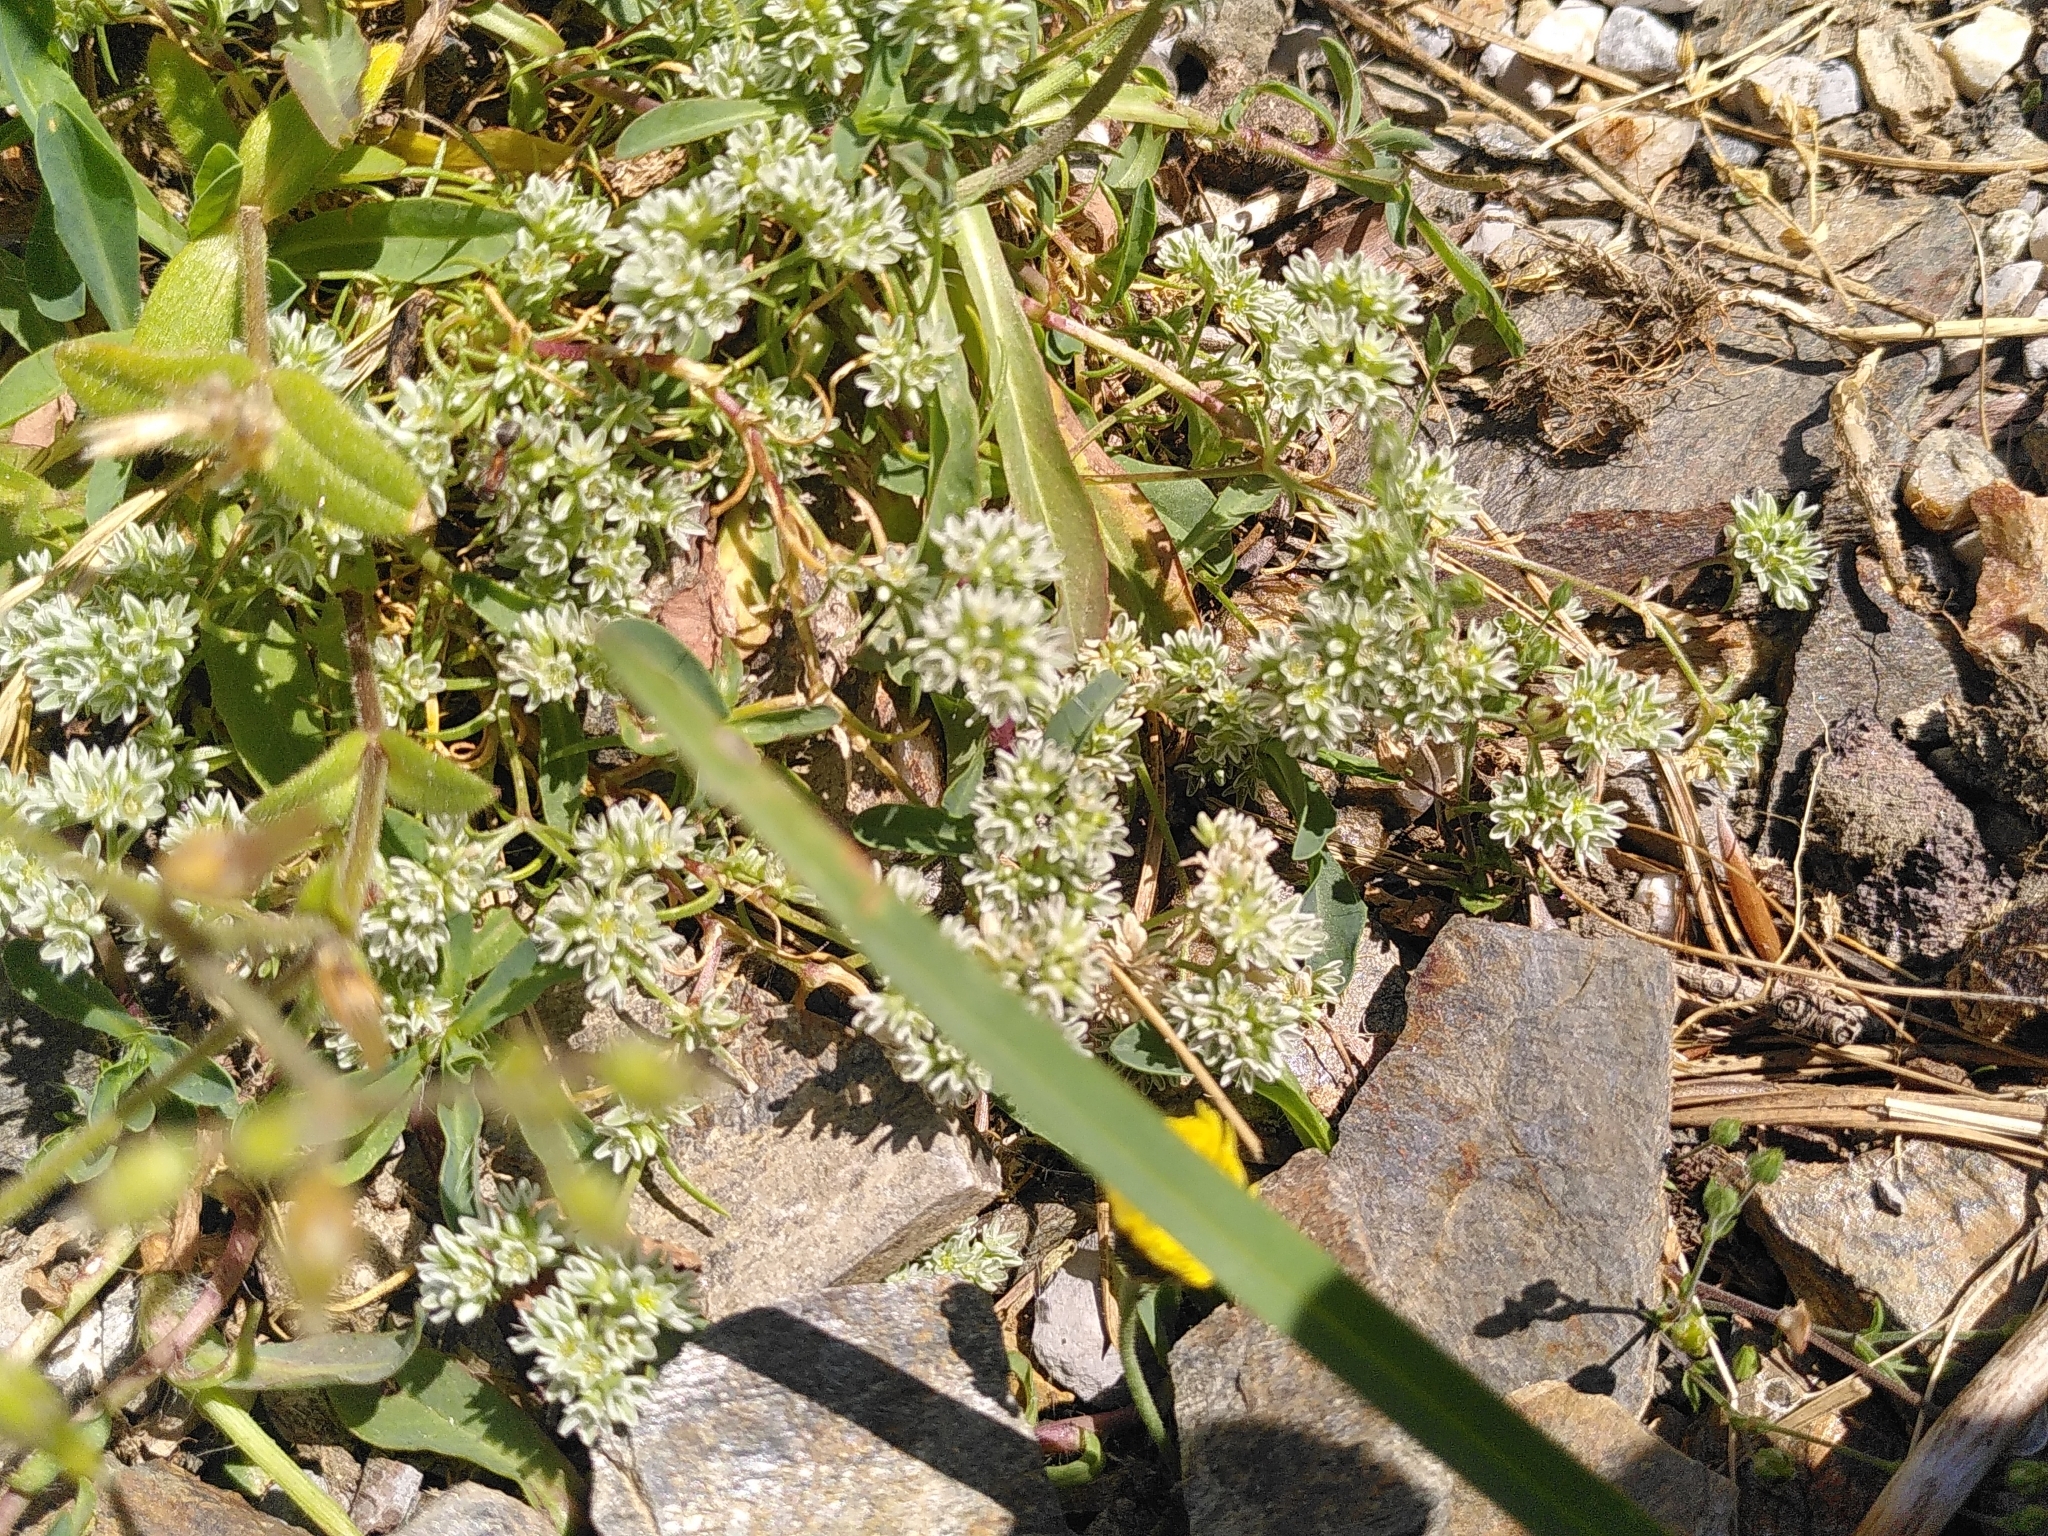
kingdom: Plantae
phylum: Tracheophyta
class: Magnoliopsida
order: Caryophyllales
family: Caryophyllaceae
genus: Scleranthus
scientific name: Scleranthus perennis
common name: Perennial knawel
